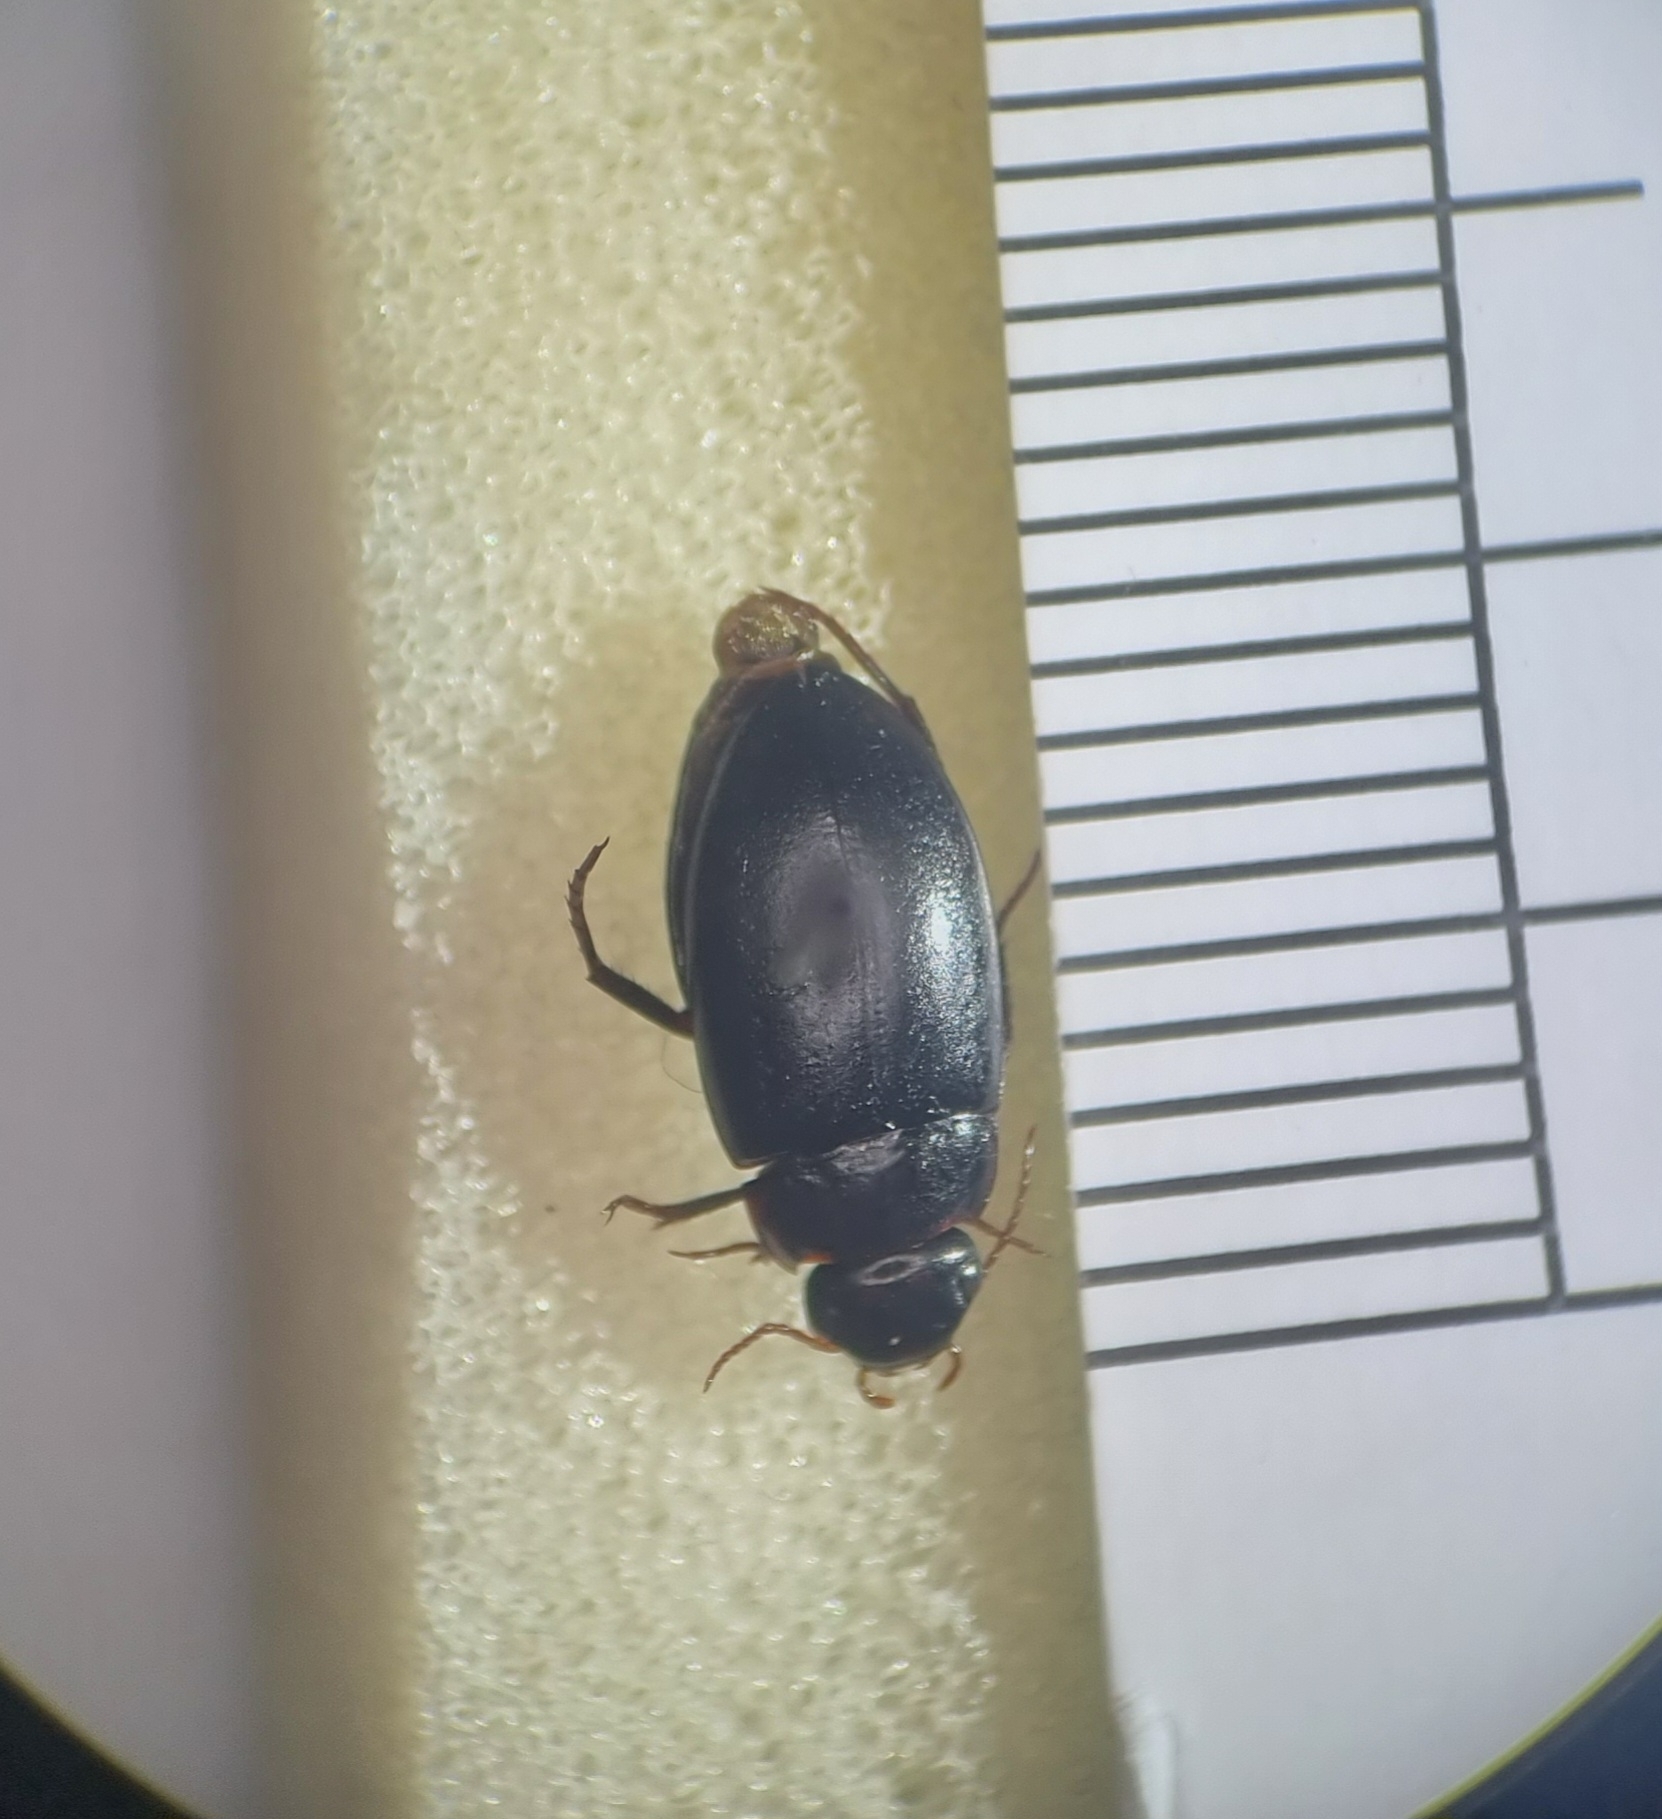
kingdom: Animalia
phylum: Arthropoda
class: Insecta
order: Coleoptera
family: Dytiscidae
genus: Agabus
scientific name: Agabus guttatus
